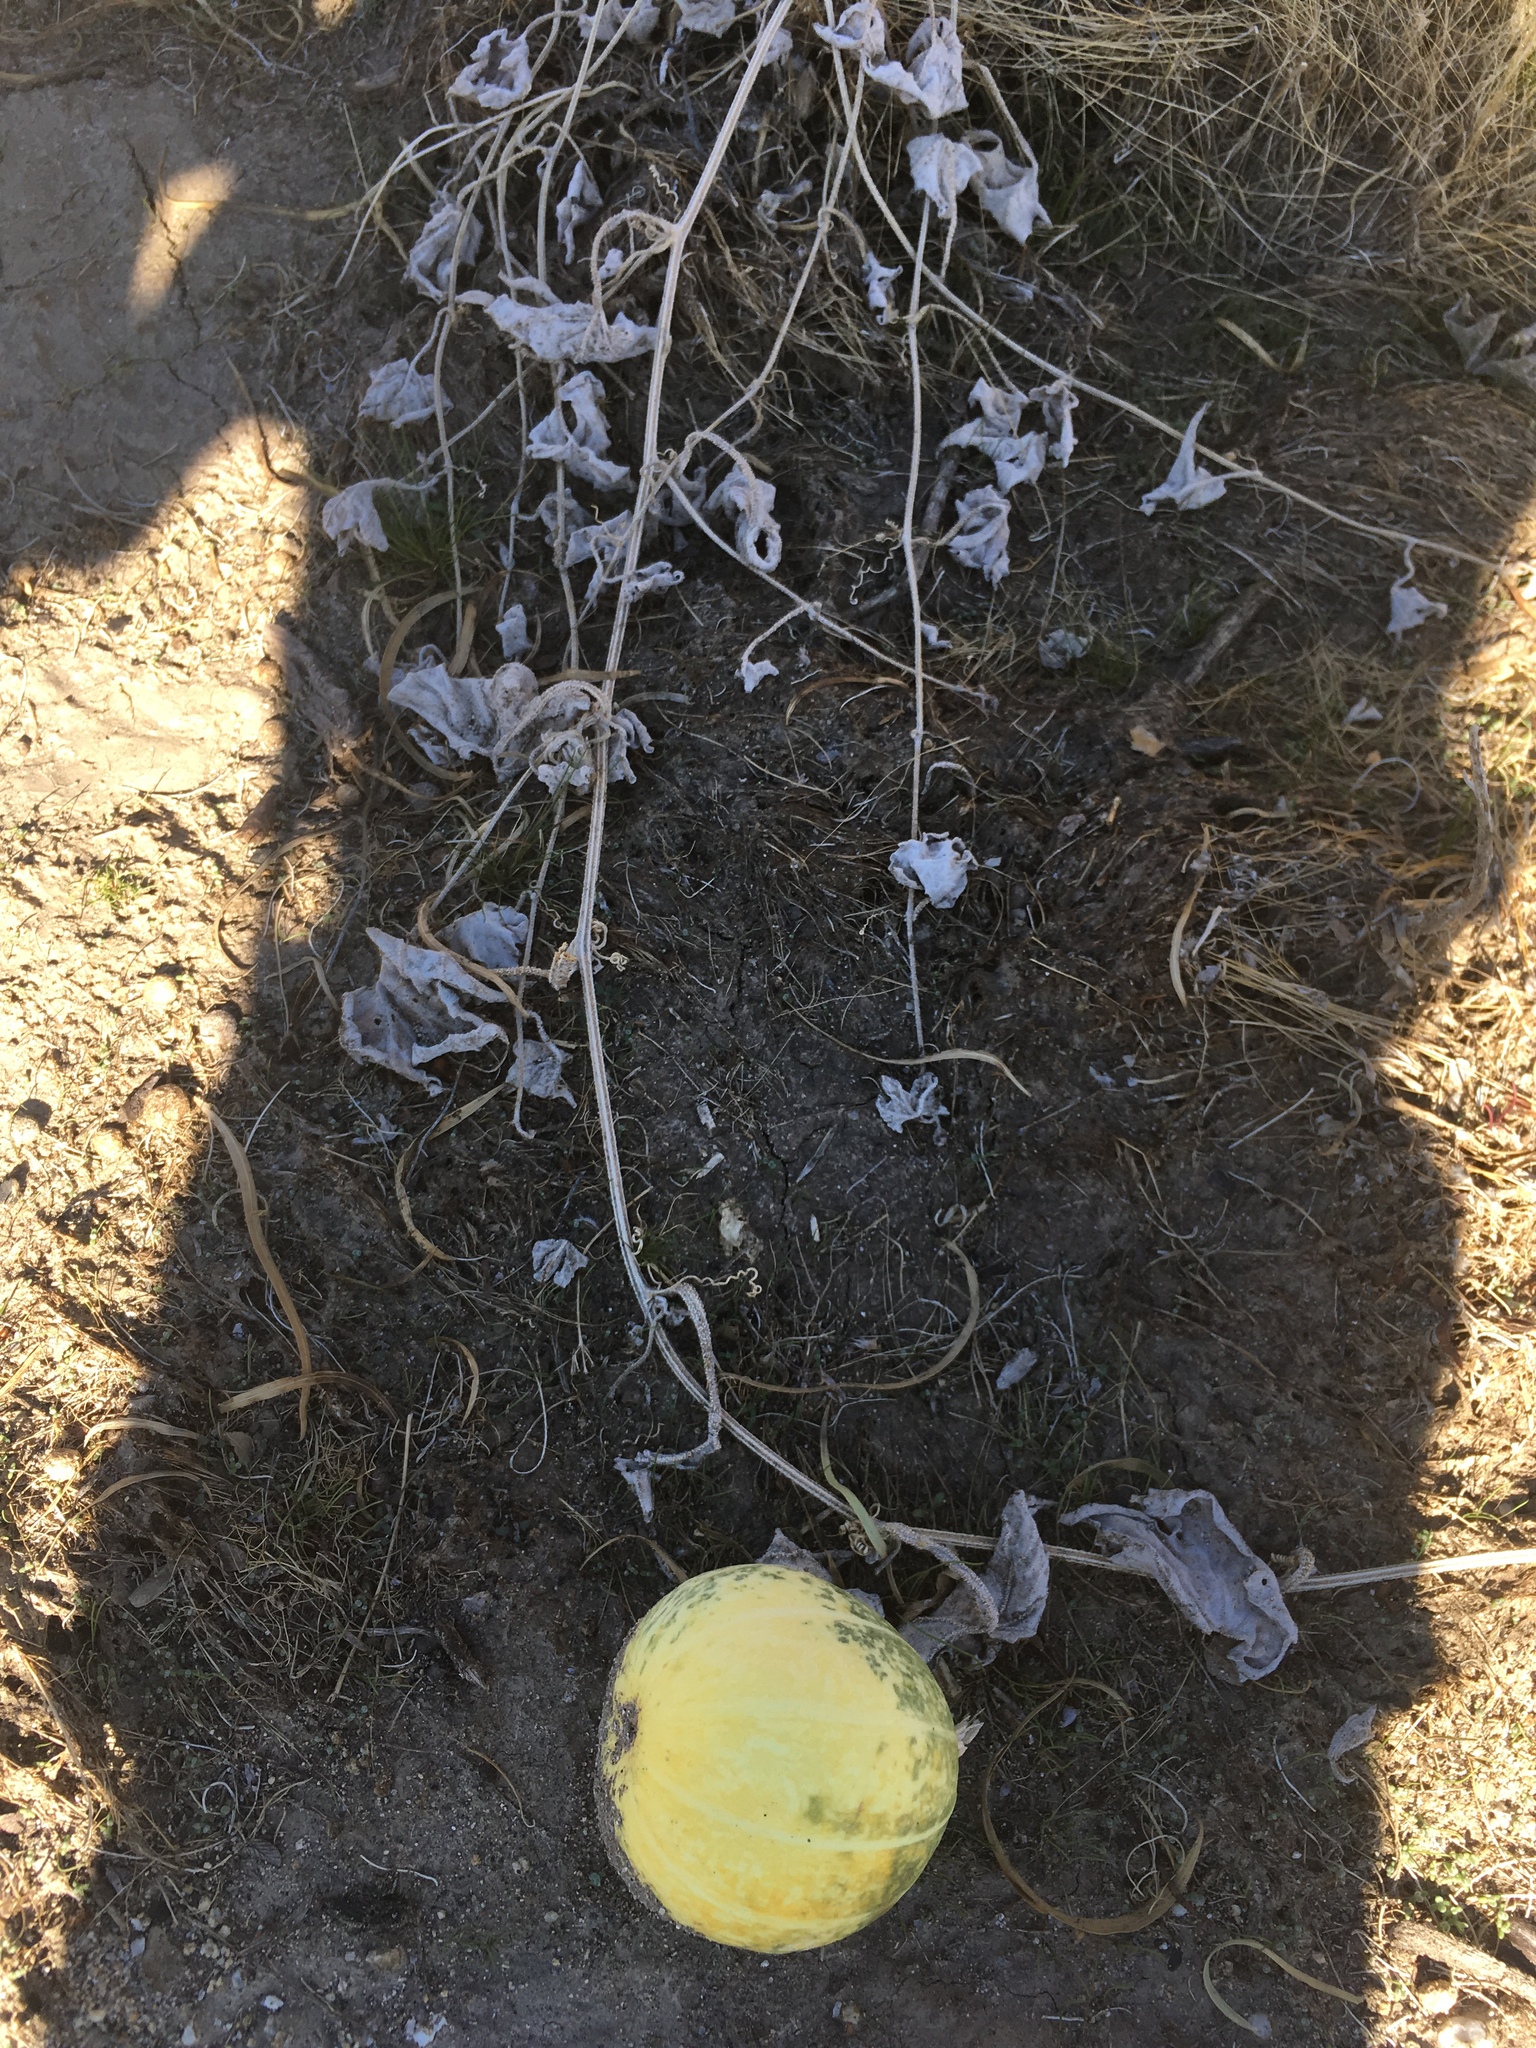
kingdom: Plantae
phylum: Tracheophyta
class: Magnoliopsida
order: Cucurbitales
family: Cucurbitaceae
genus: Cucurbita
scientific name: Cucurbita palmata
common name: Coyote-melon
